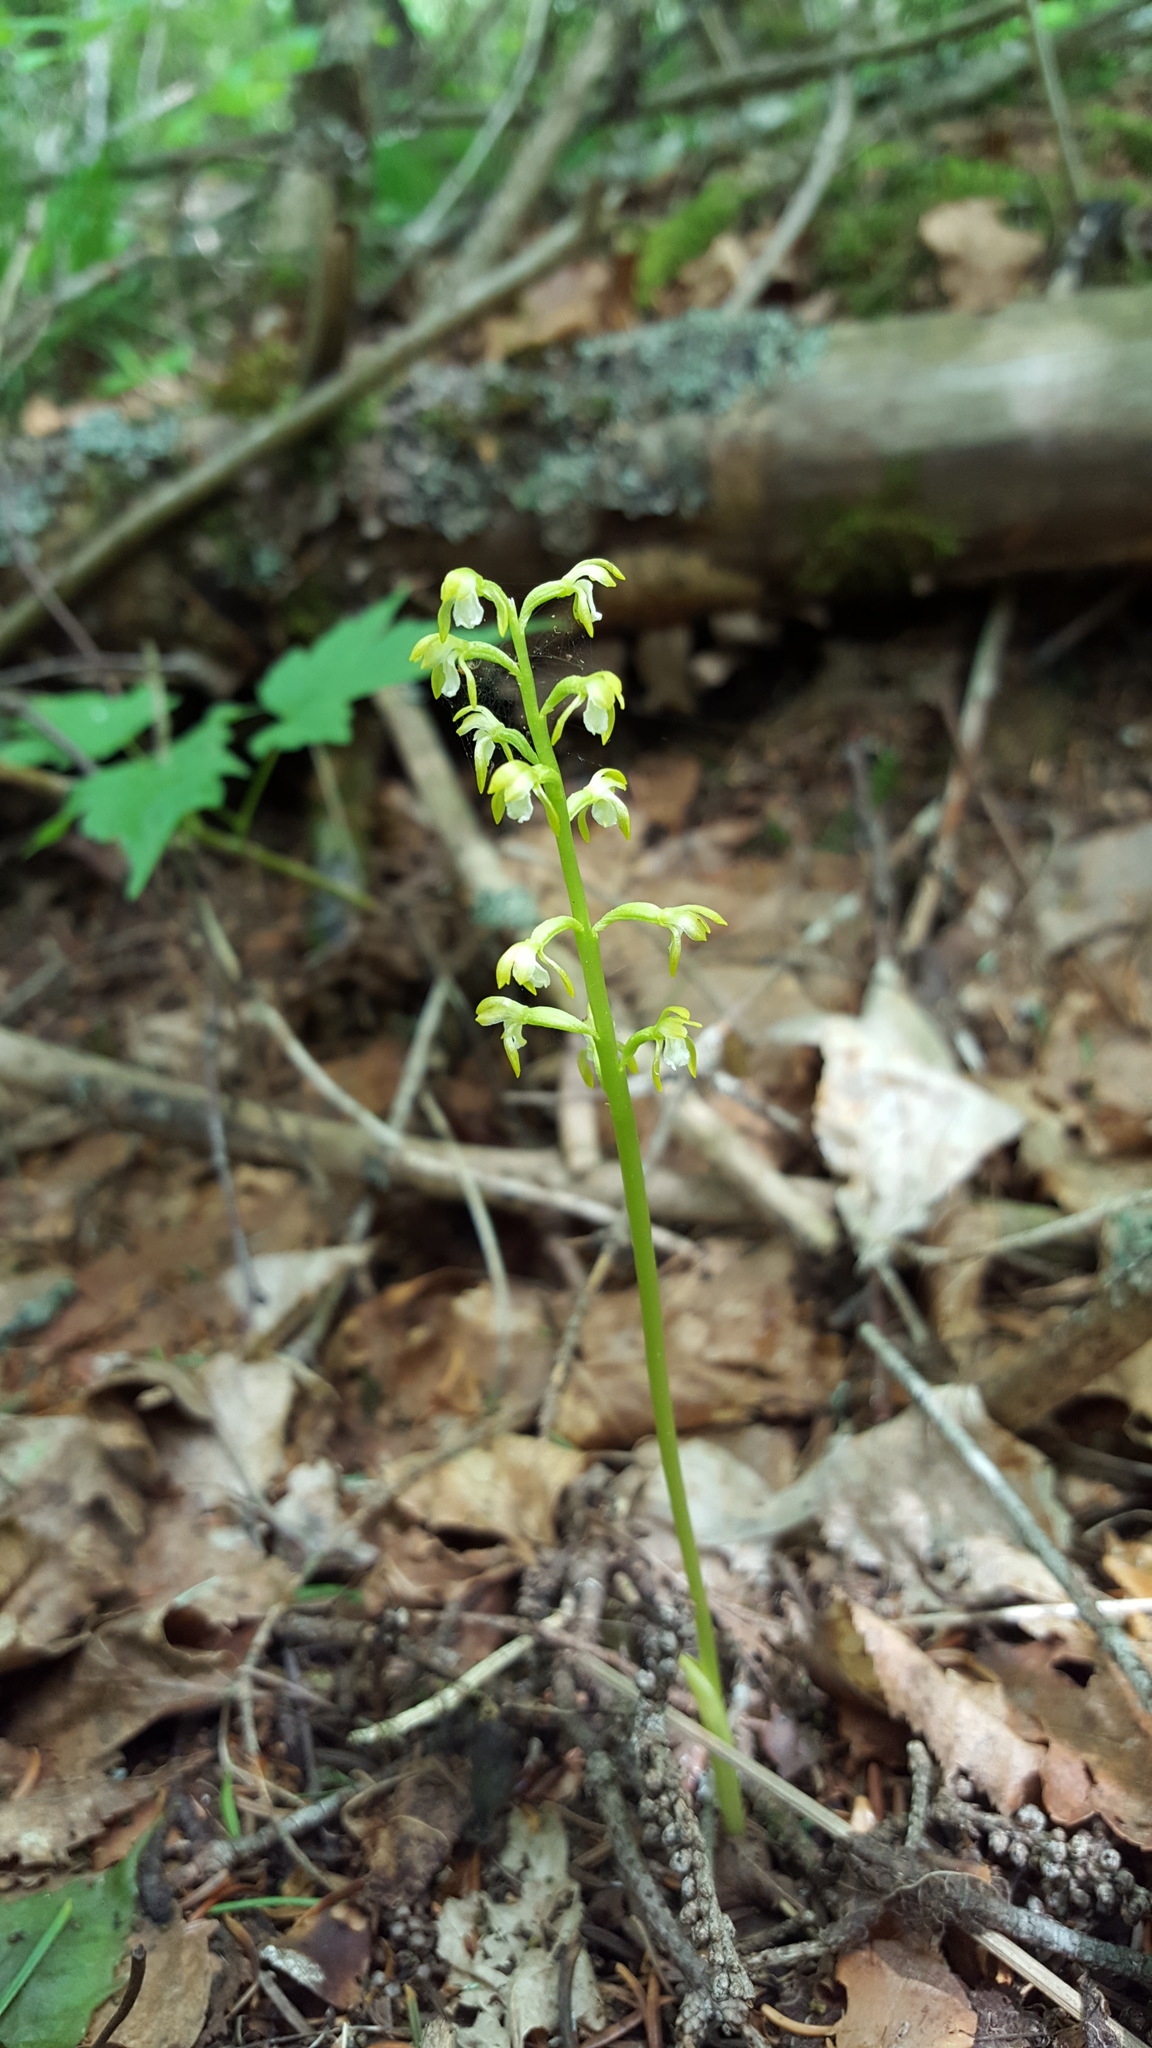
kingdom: Plantae
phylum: Tracheophyta
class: Liliopsida
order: Asparagales
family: Orchidaceae
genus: Corallorhiza
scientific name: Corallorhiza trifida
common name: Yellow coralroot
